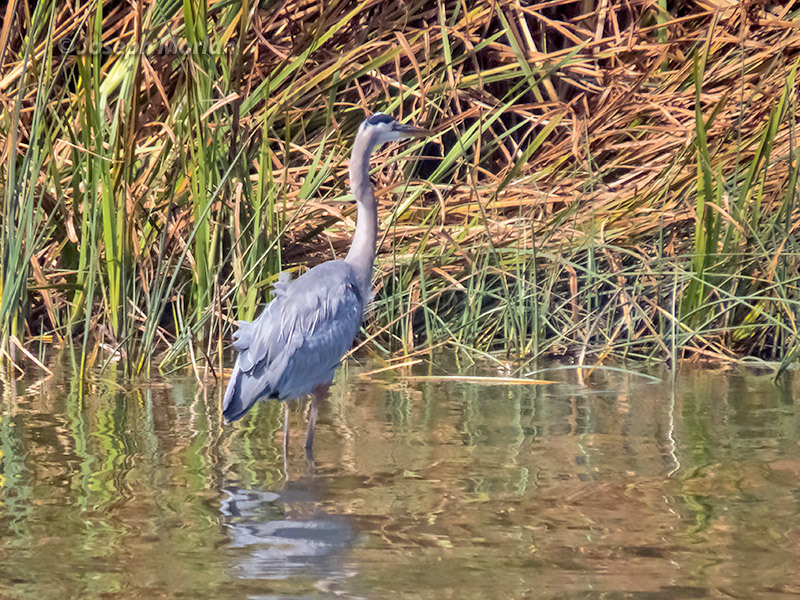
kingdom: Animalia
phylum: Chordata
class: Aves
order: Pelecaniformes
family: Ardeidae
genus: Ardea
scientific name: Ardea herodias
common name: Great blue heron
